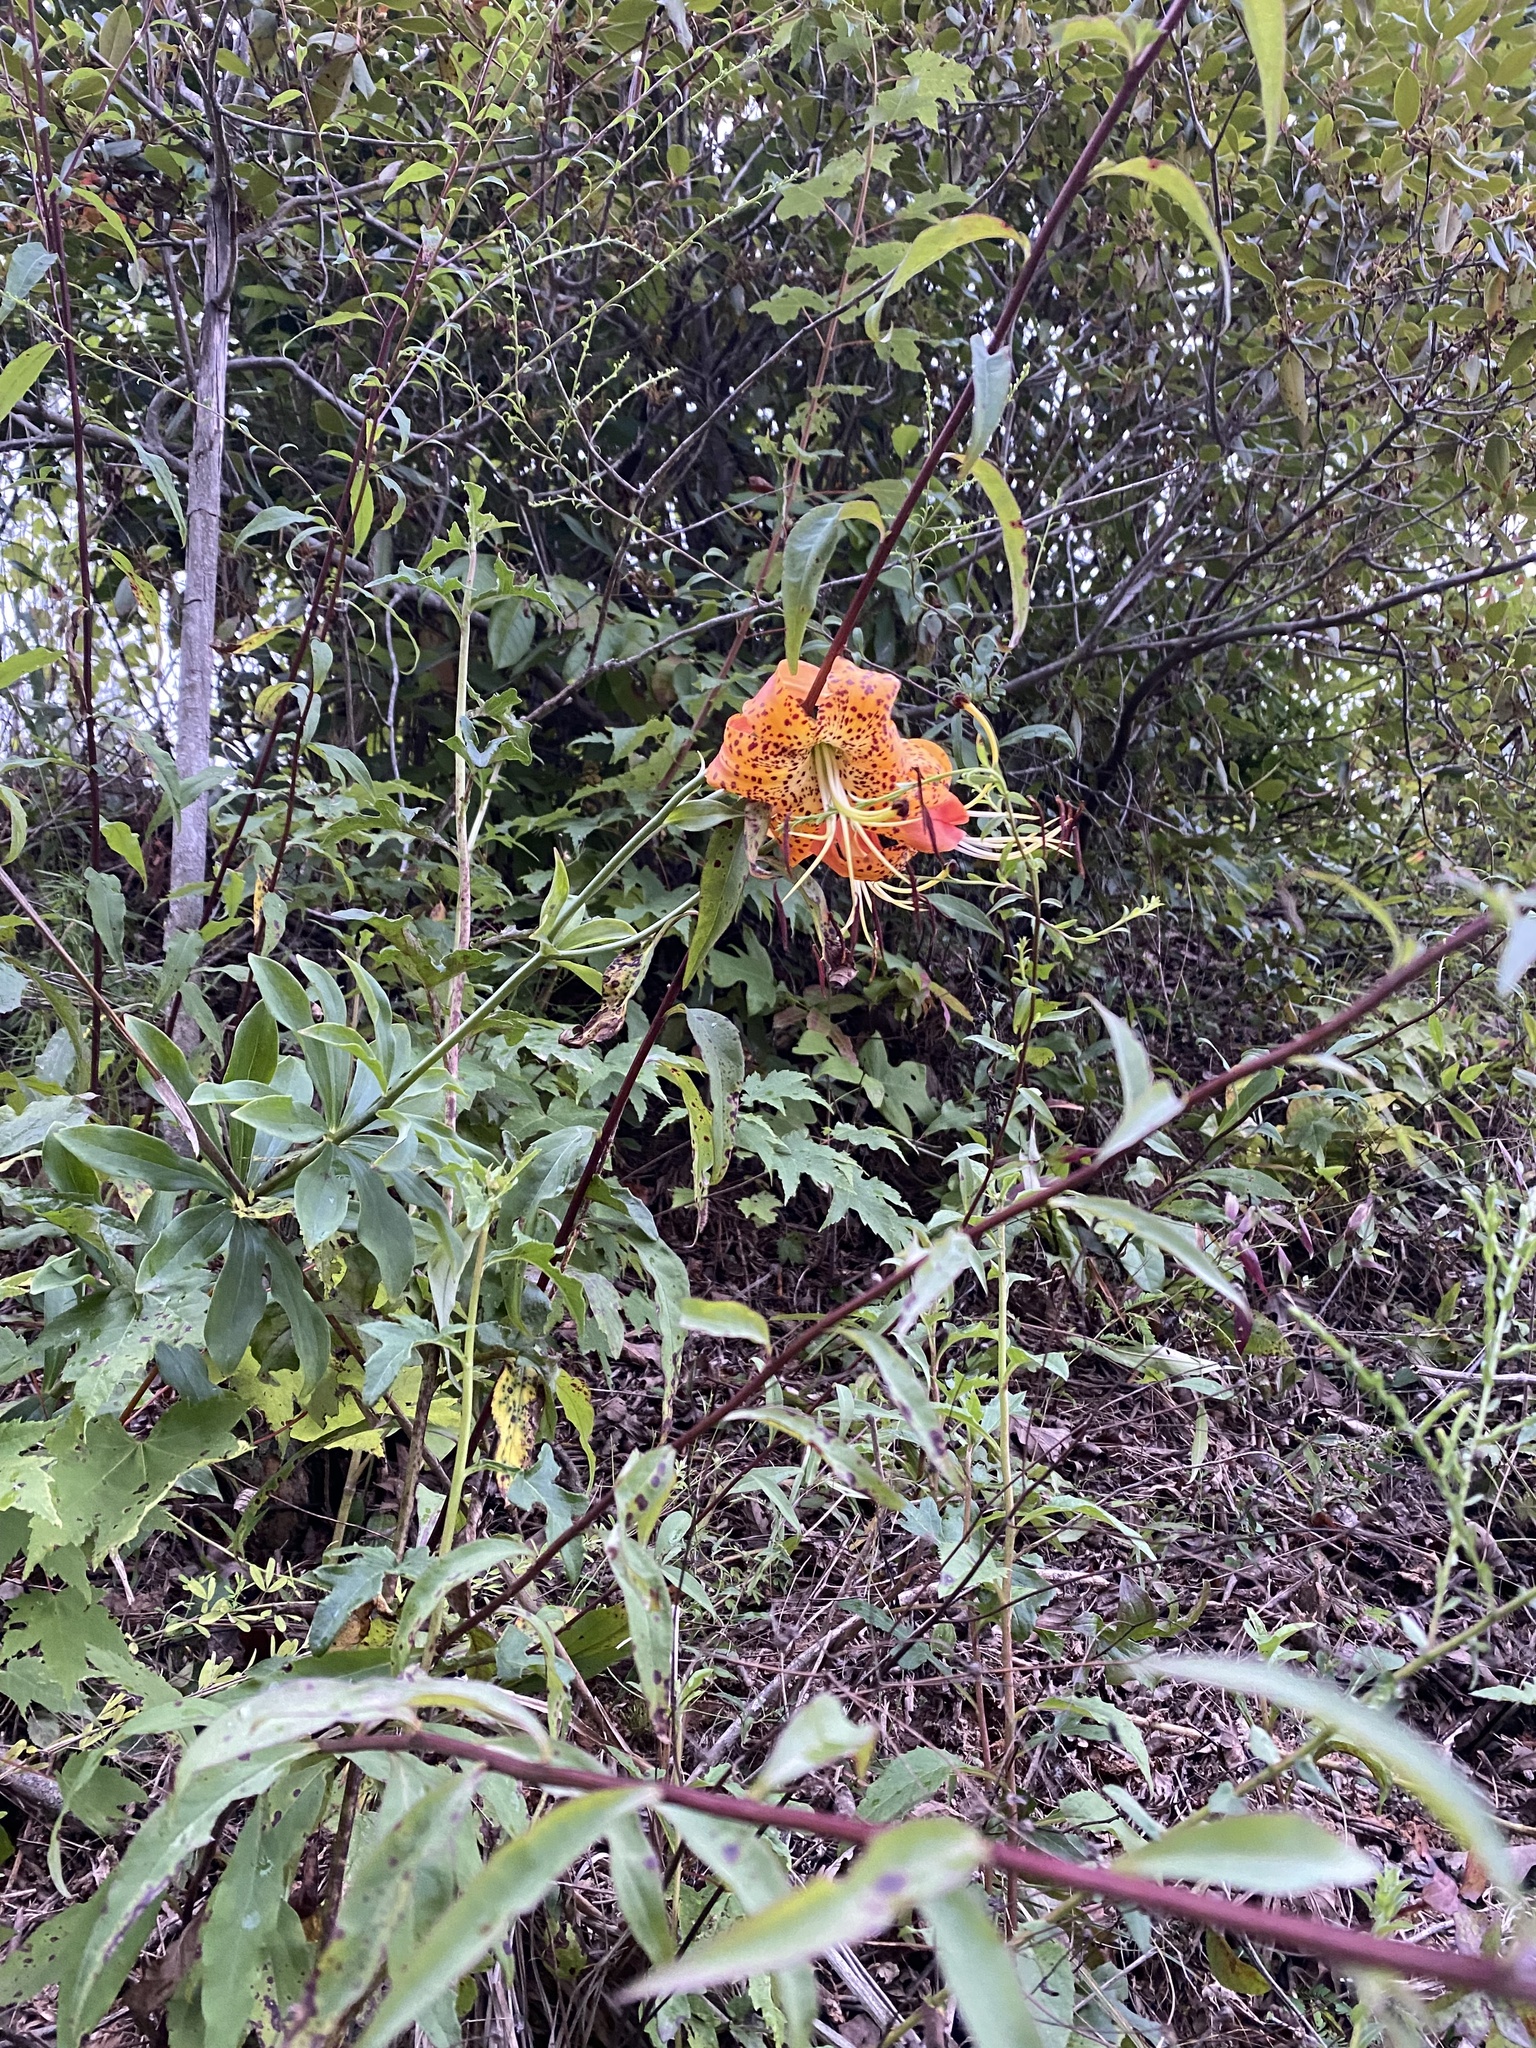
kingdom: Plantae
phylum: Tracheophyta
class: Liliopsida
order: Liliales
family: Liliaceae
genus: Lilium
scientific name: Lilium michauxii
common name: Carolina lily
